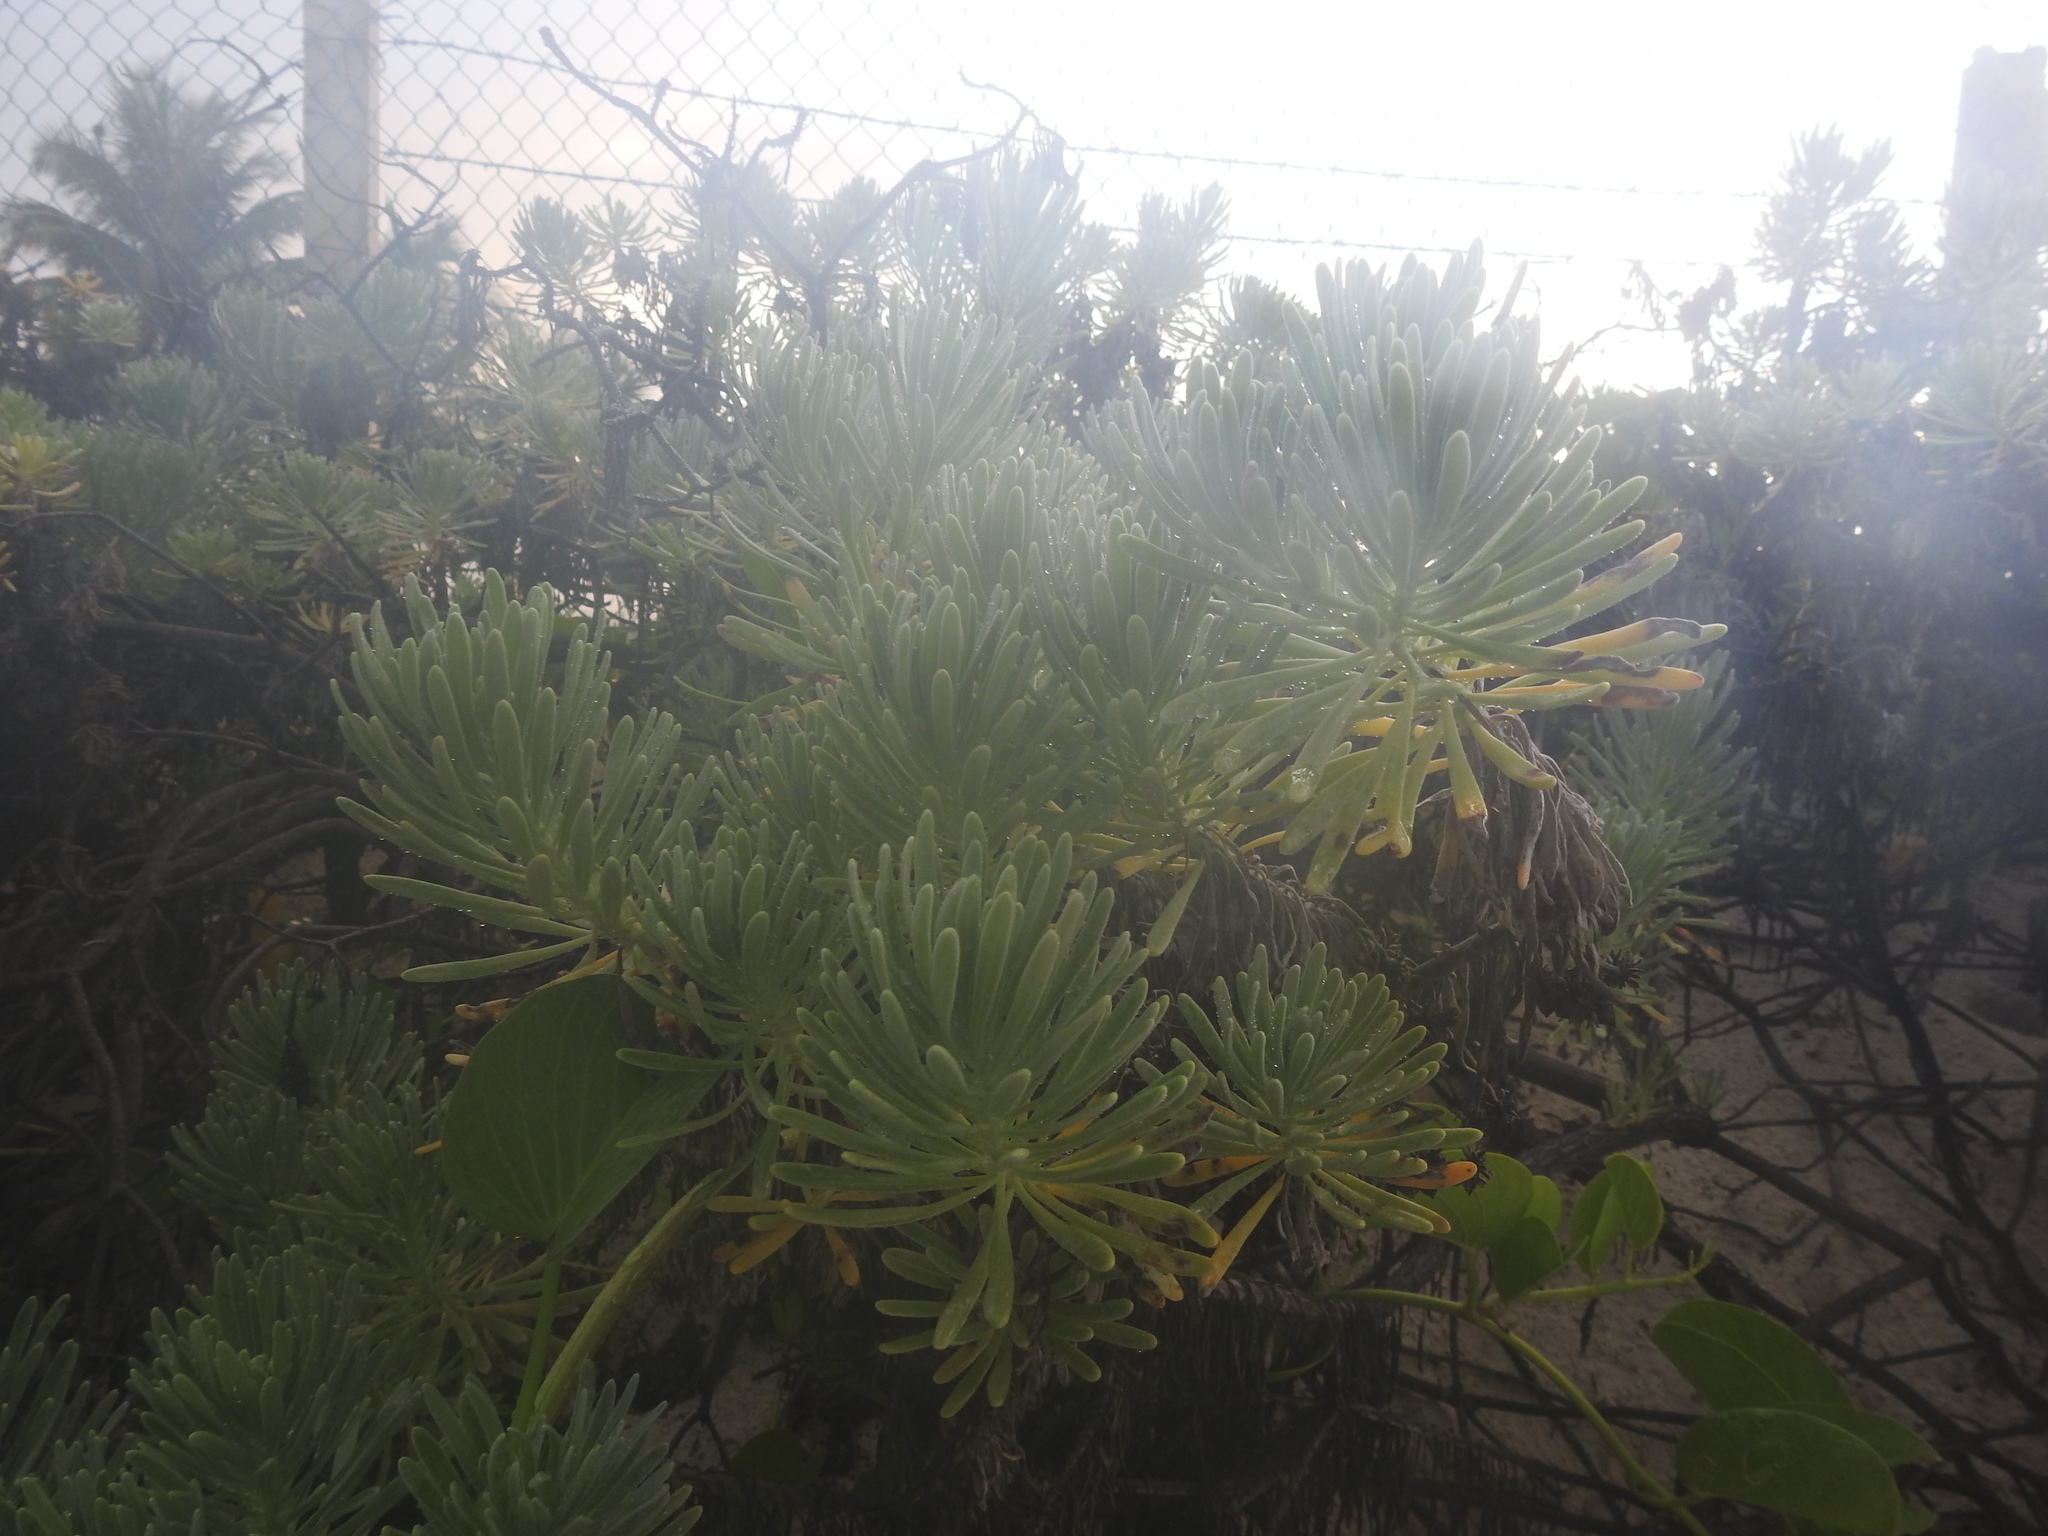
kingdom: Plantae
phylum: Tracheophyta
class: Magnoliopsida
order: Boraginales
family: Heliotropiaceae
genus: Tournefortia
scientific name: Tournefortia gnaphalodes
